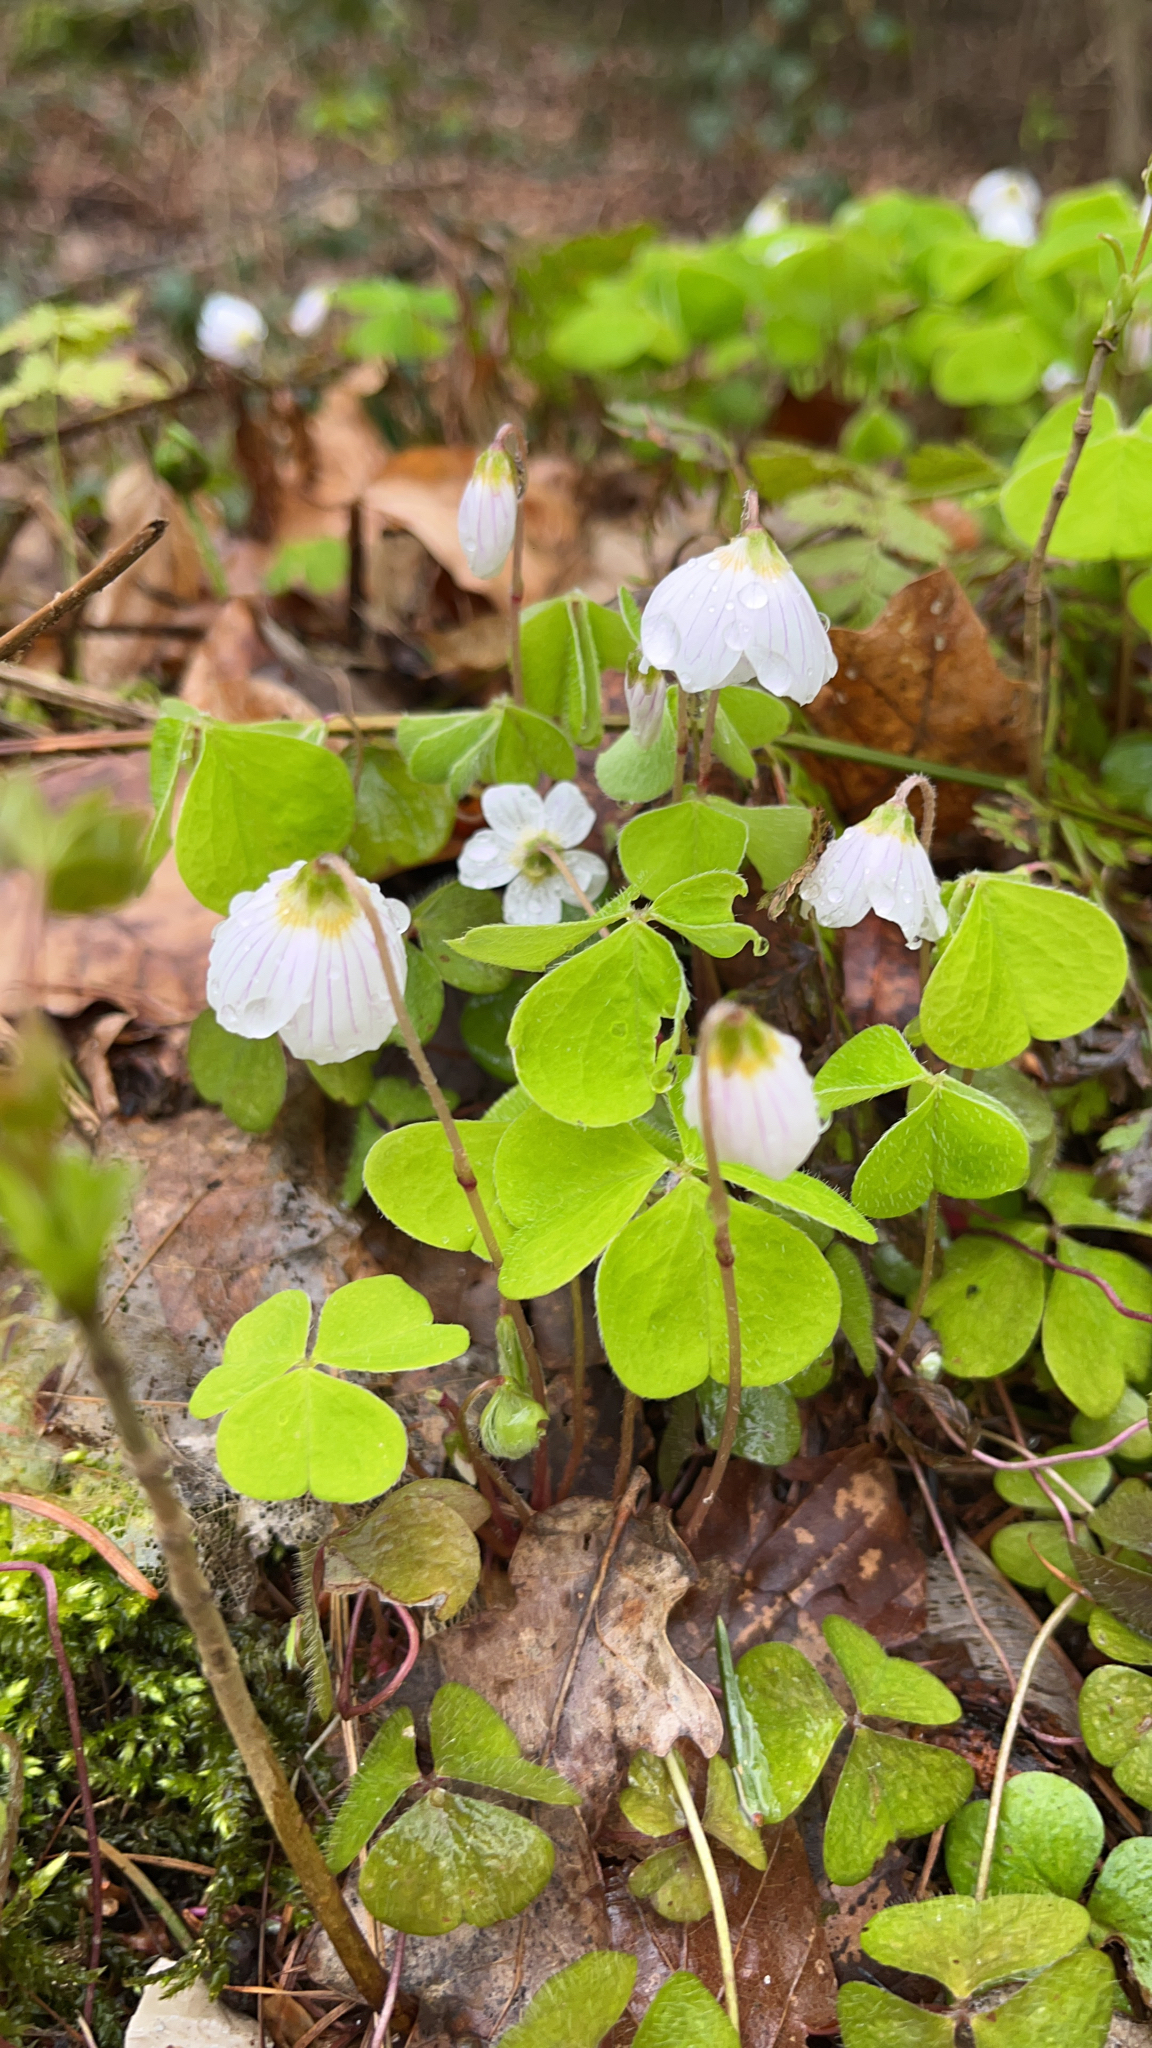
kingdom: Plantae
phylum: Tracheophyta
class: Magnoliopsida
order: Oxalidales
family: Oxalidaceae
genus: Oxalis
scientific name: Oxalis acetosella
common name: Wood-sorrel
